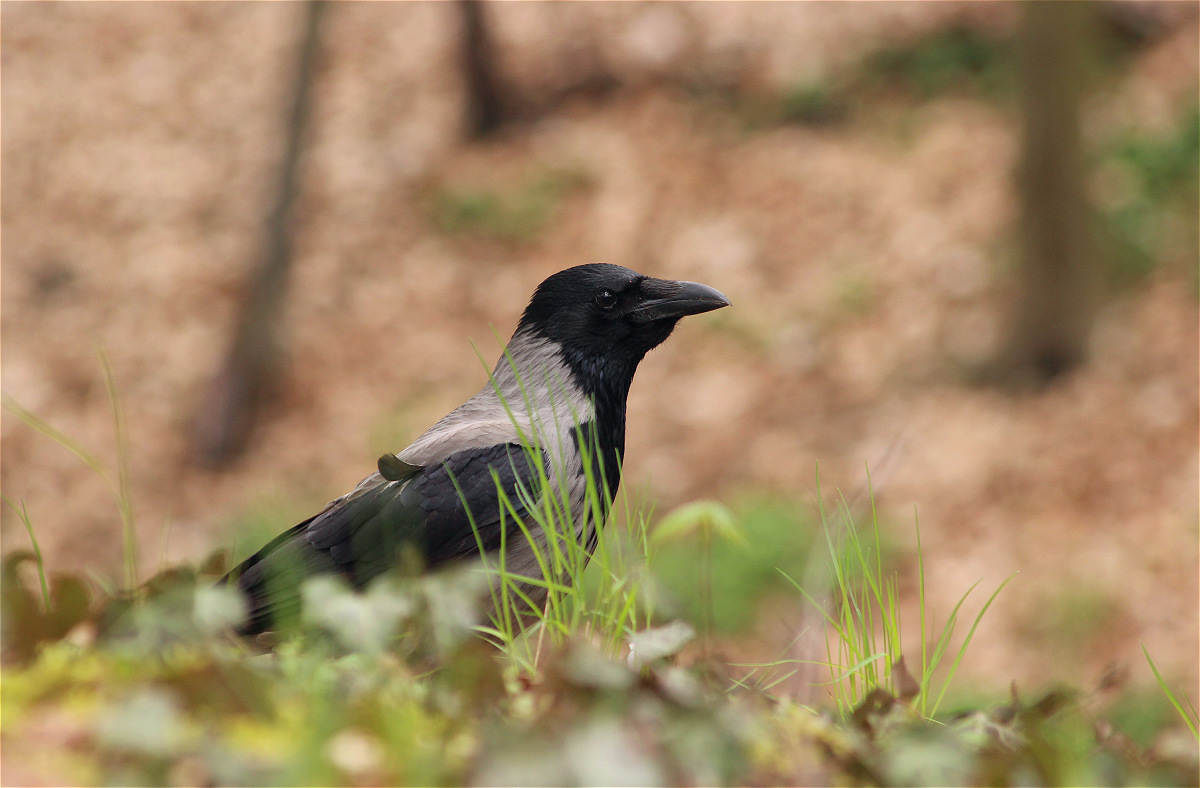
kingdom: Animalia
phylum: Chordata
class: Aves
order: Passeriformes
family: Corvidae
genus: Corvus
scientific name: Corvus cornix
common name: Hooded crow
